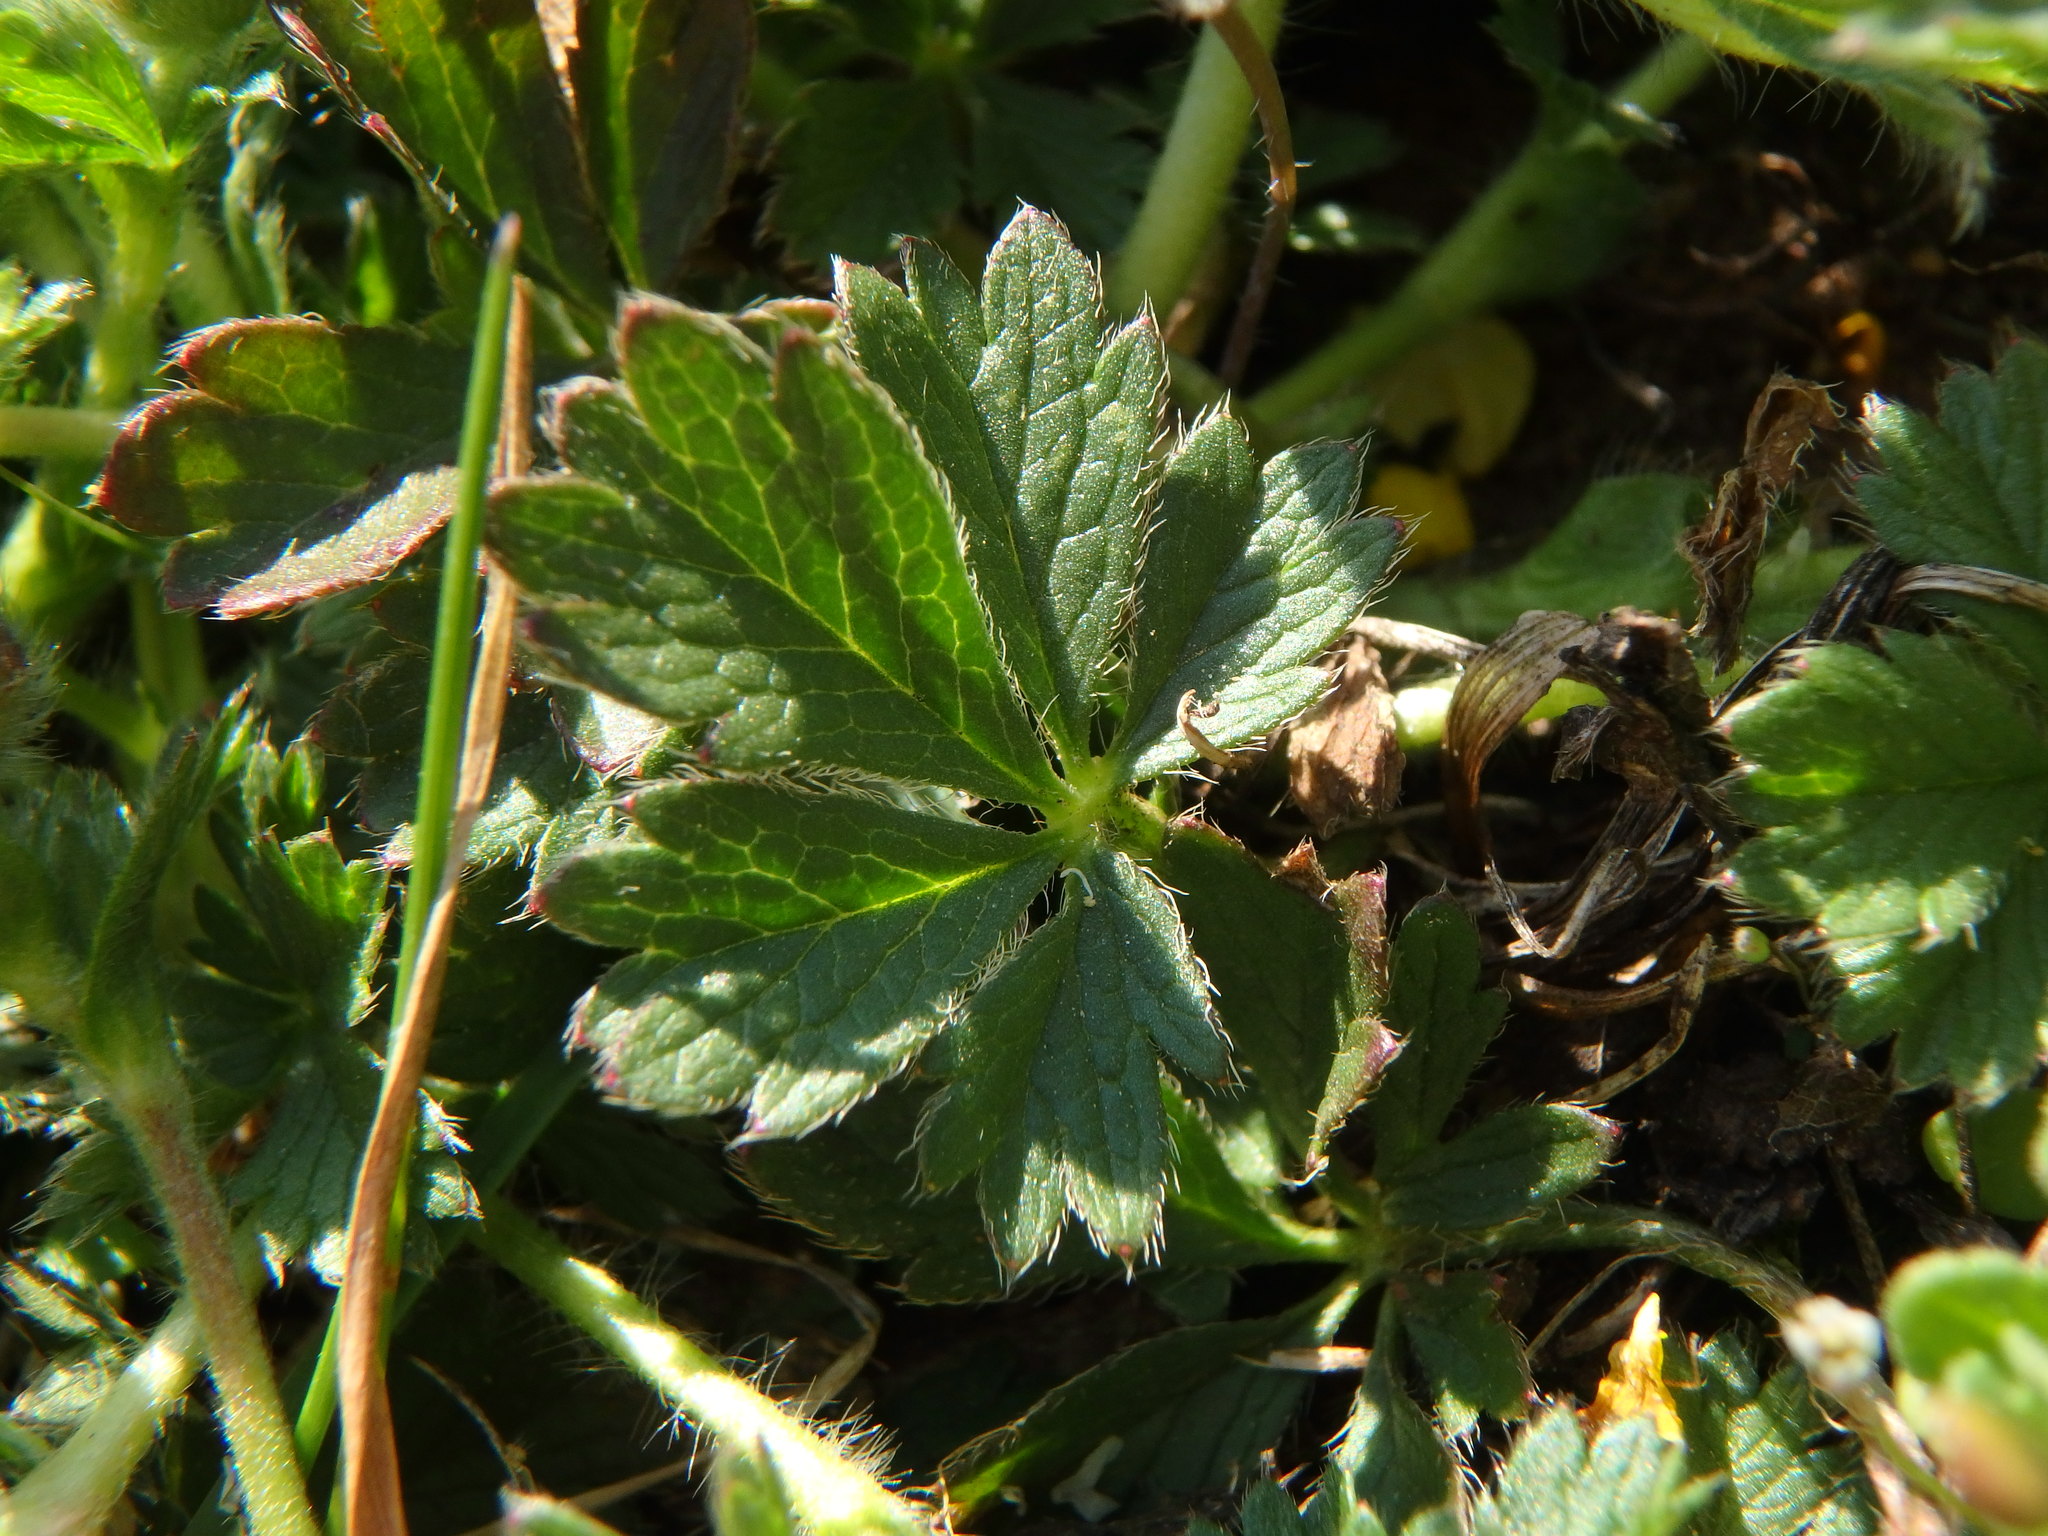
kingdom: Plantae
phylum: Tracheophyta
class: Magnoliopsida
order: Rosales
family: Rosaceae
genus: Potentilla
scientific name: Potentilla verna
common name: Spring cinquefoil
